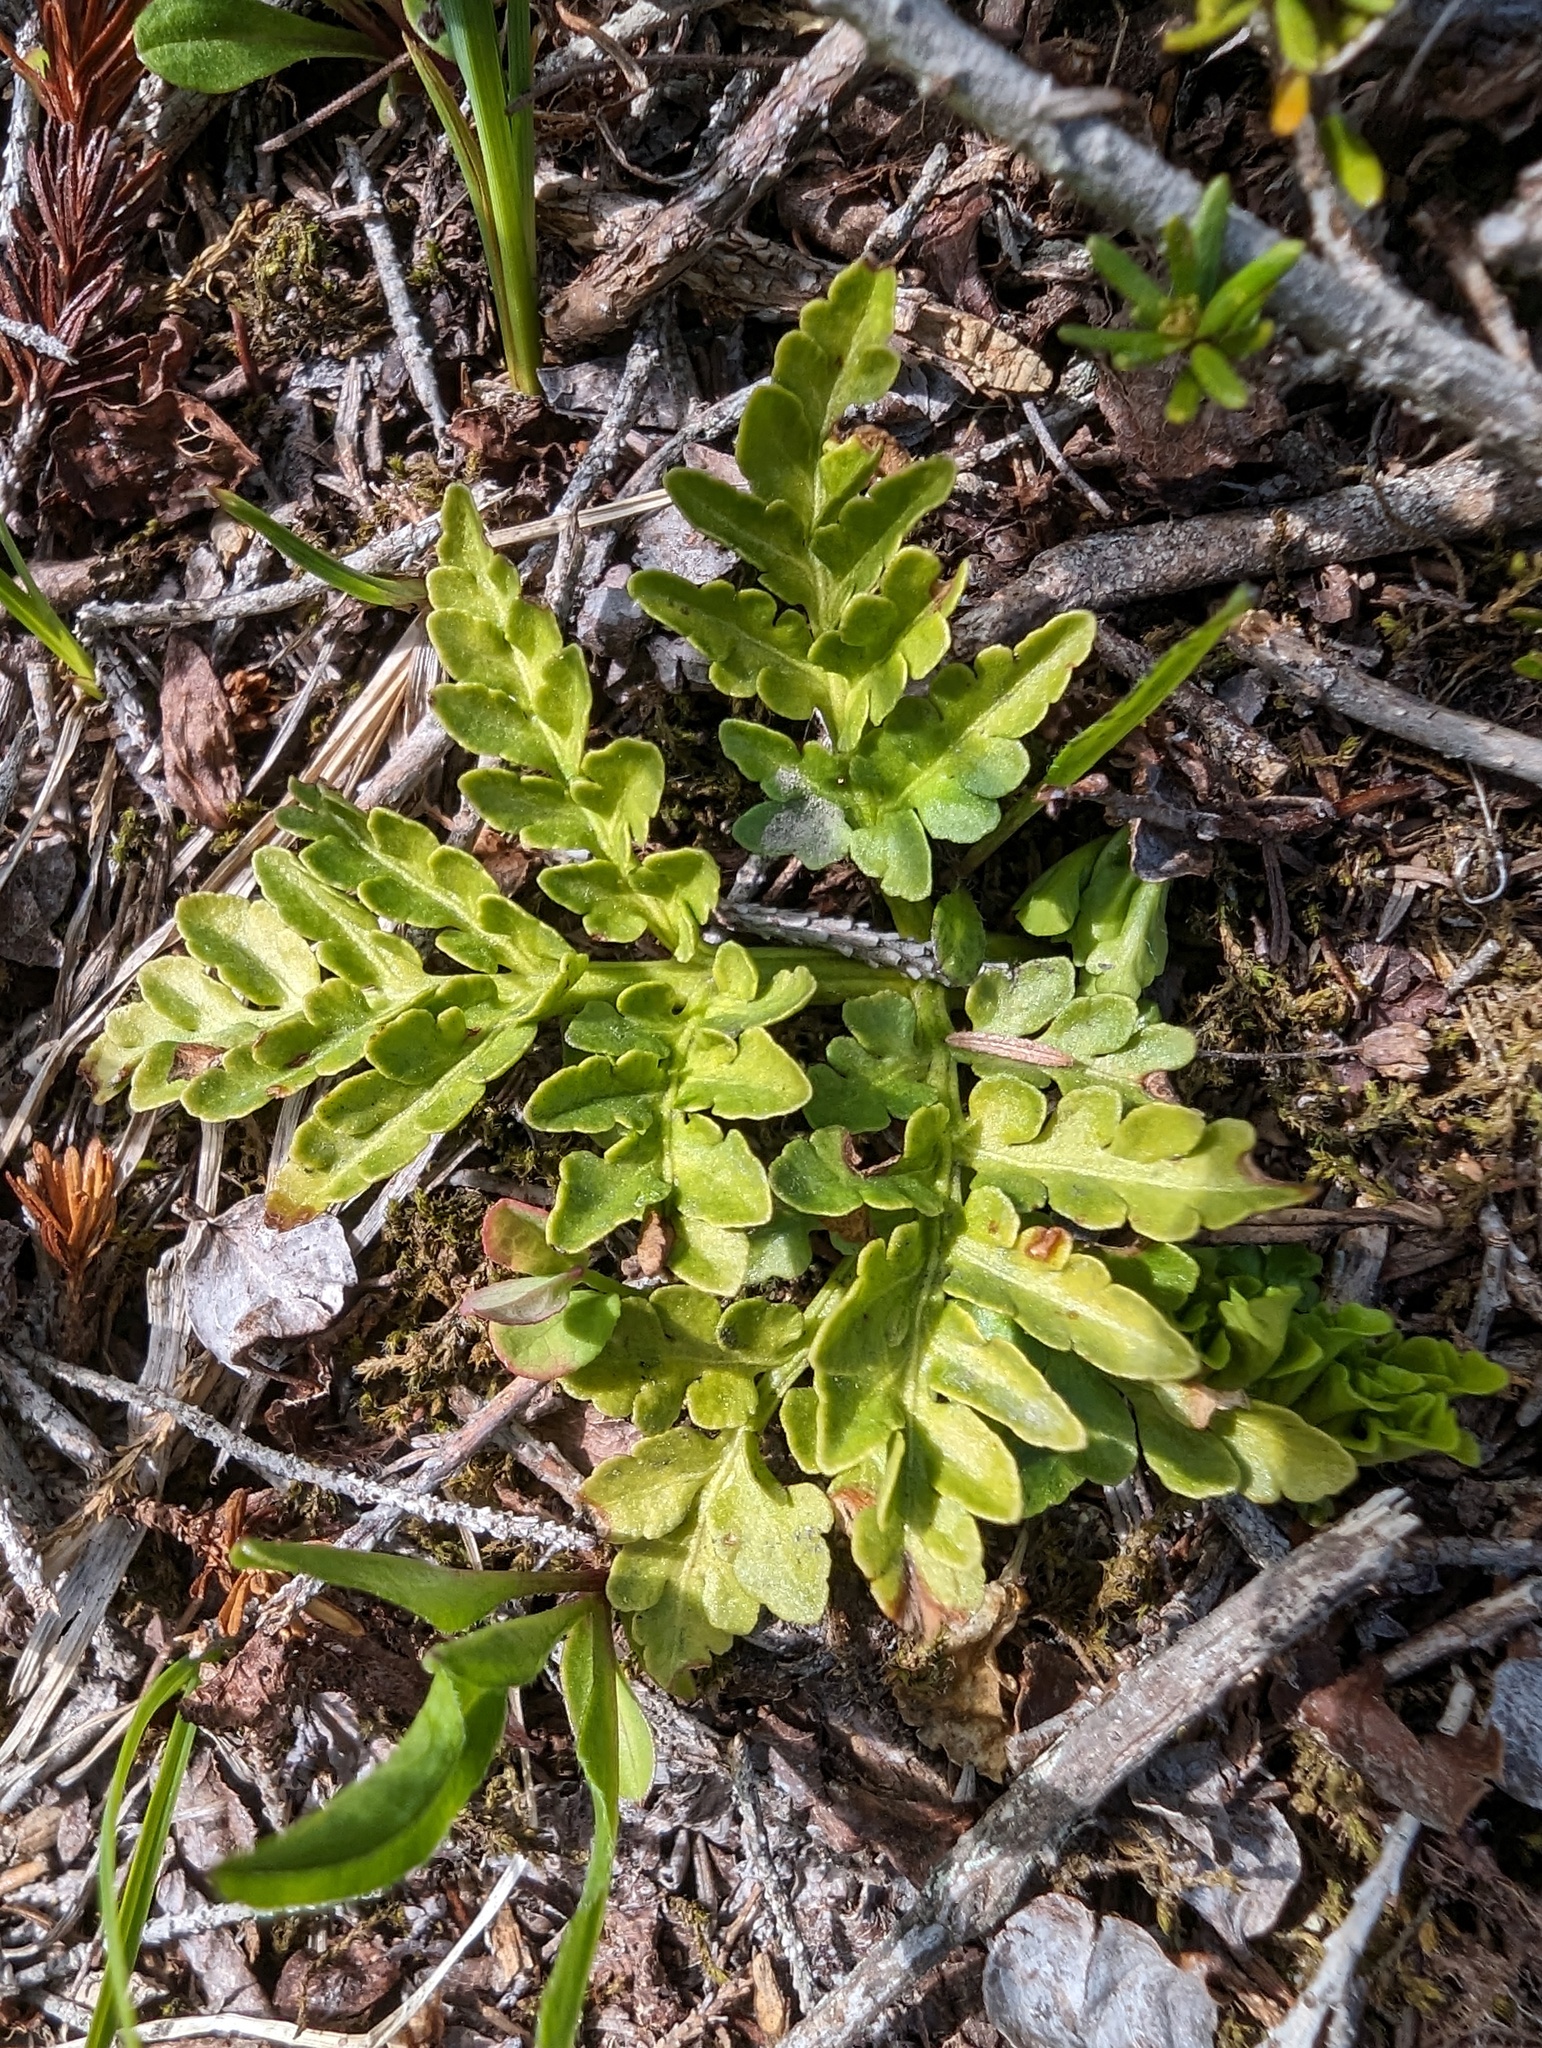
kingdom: Plantae
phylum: Tracheophyta
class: Polypodiopsida
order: Ophioglossales
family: Ophioglossaceae
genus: Sceptridium
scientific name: Sceptridium multifidum
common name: Leathery grape fern
